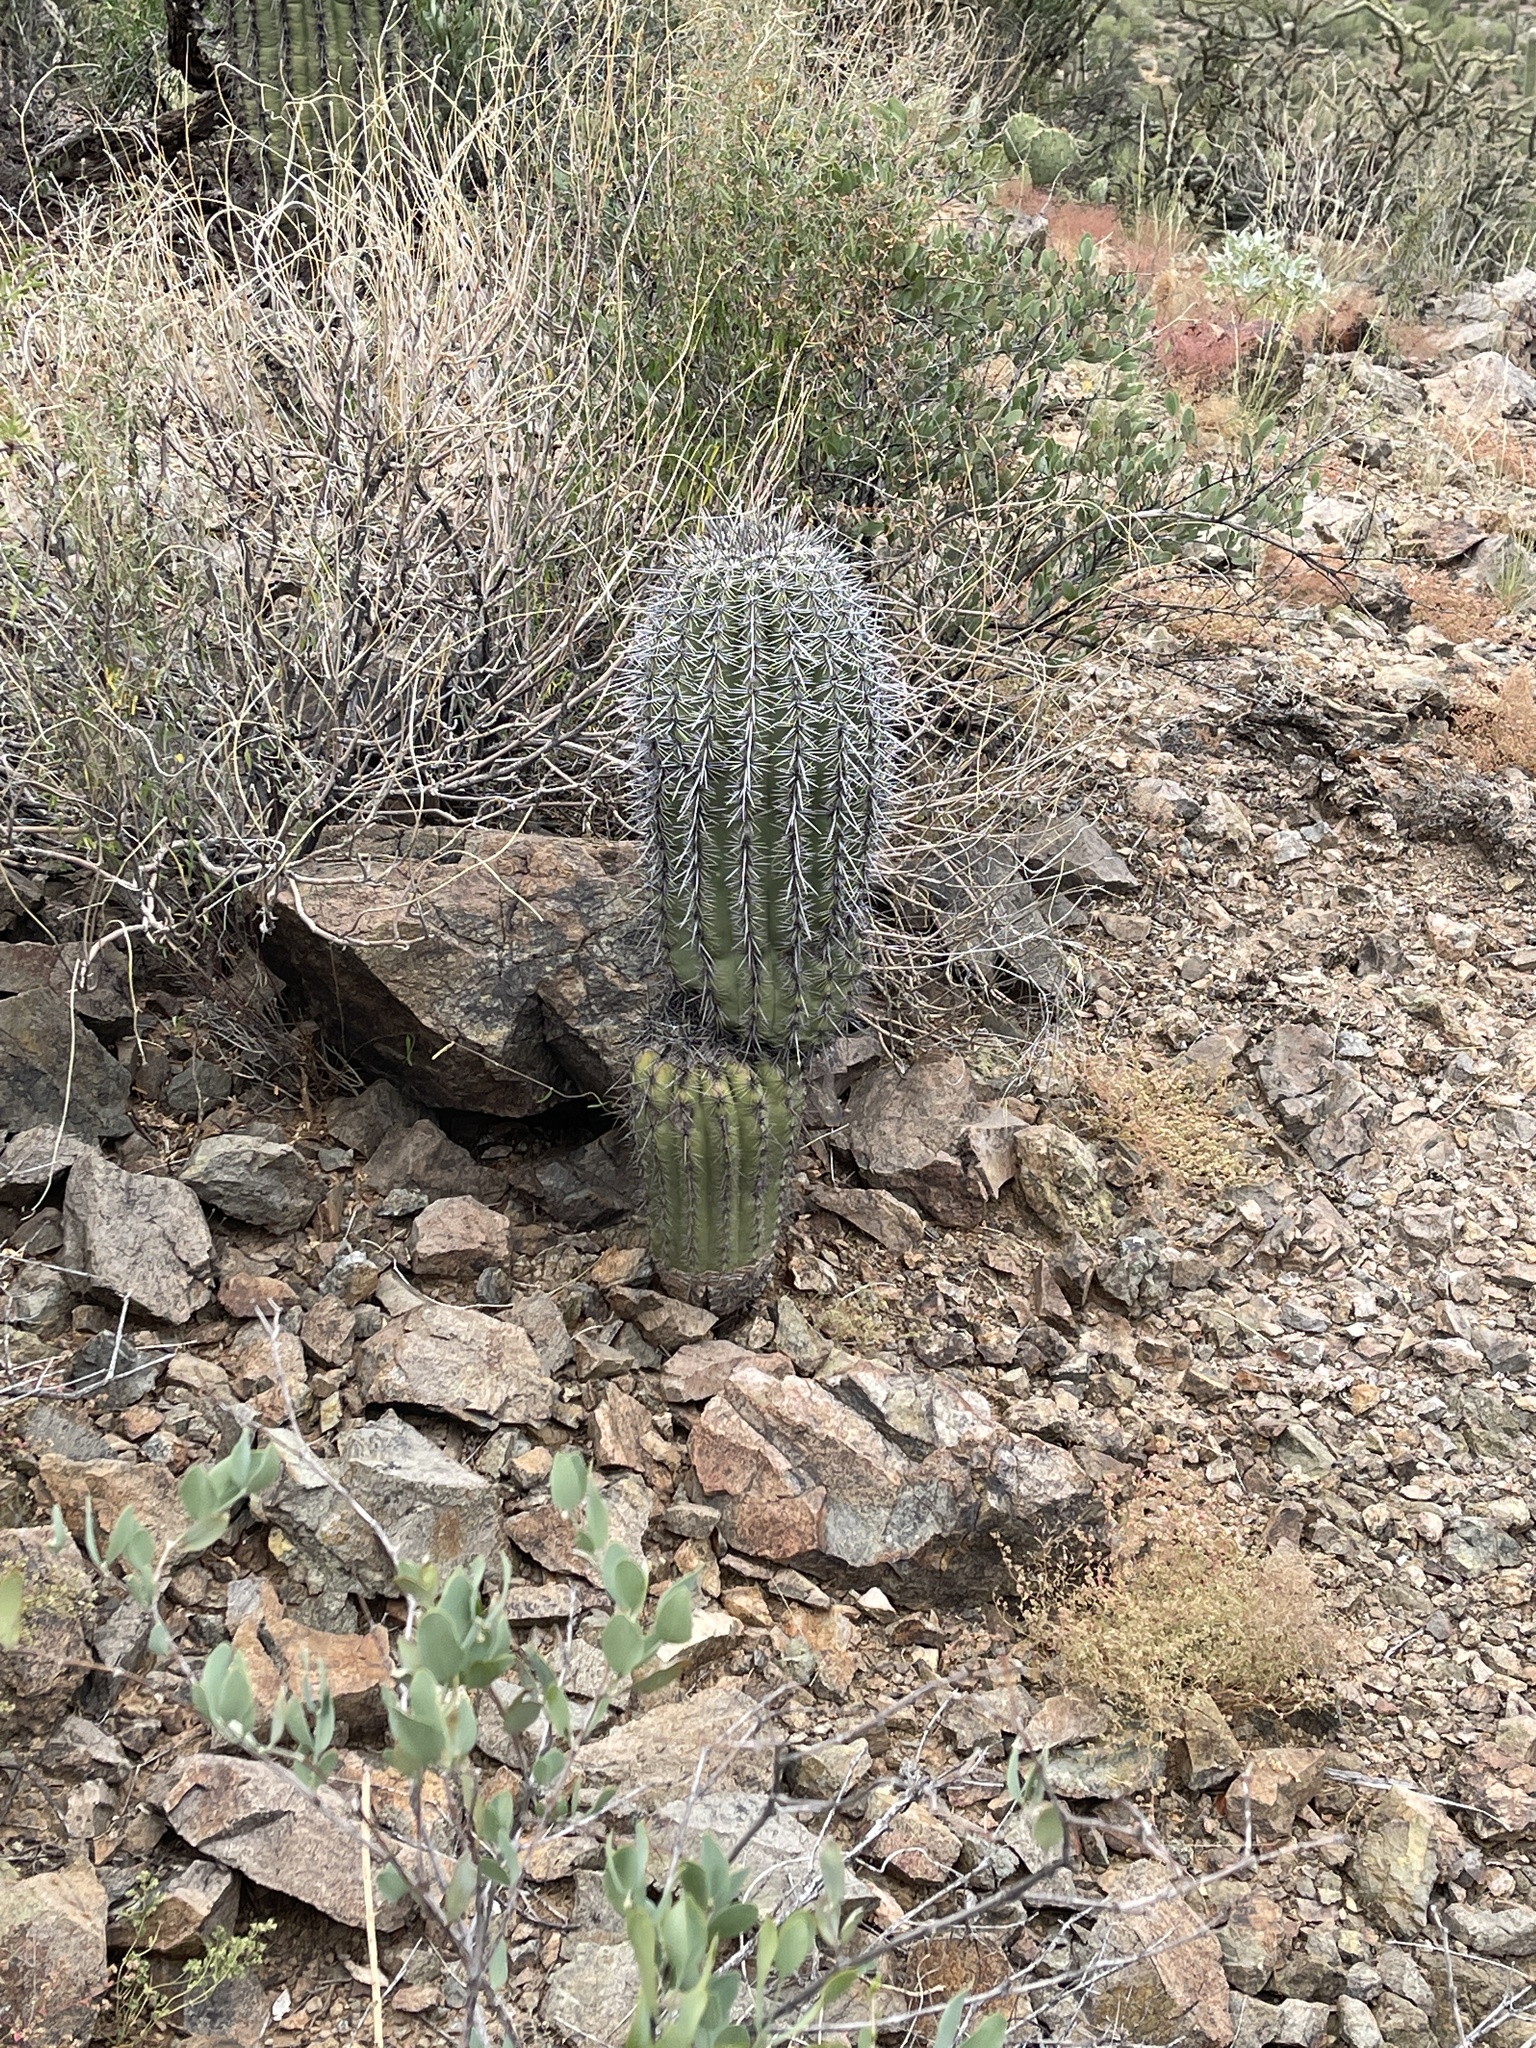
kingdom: Plantae
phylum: Tracheophyta
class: Magnoliopsida
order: Caryophyllales
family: Cactaceae
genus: Carnegiea
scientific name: Carnegiea gigantea
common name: Saguaro
